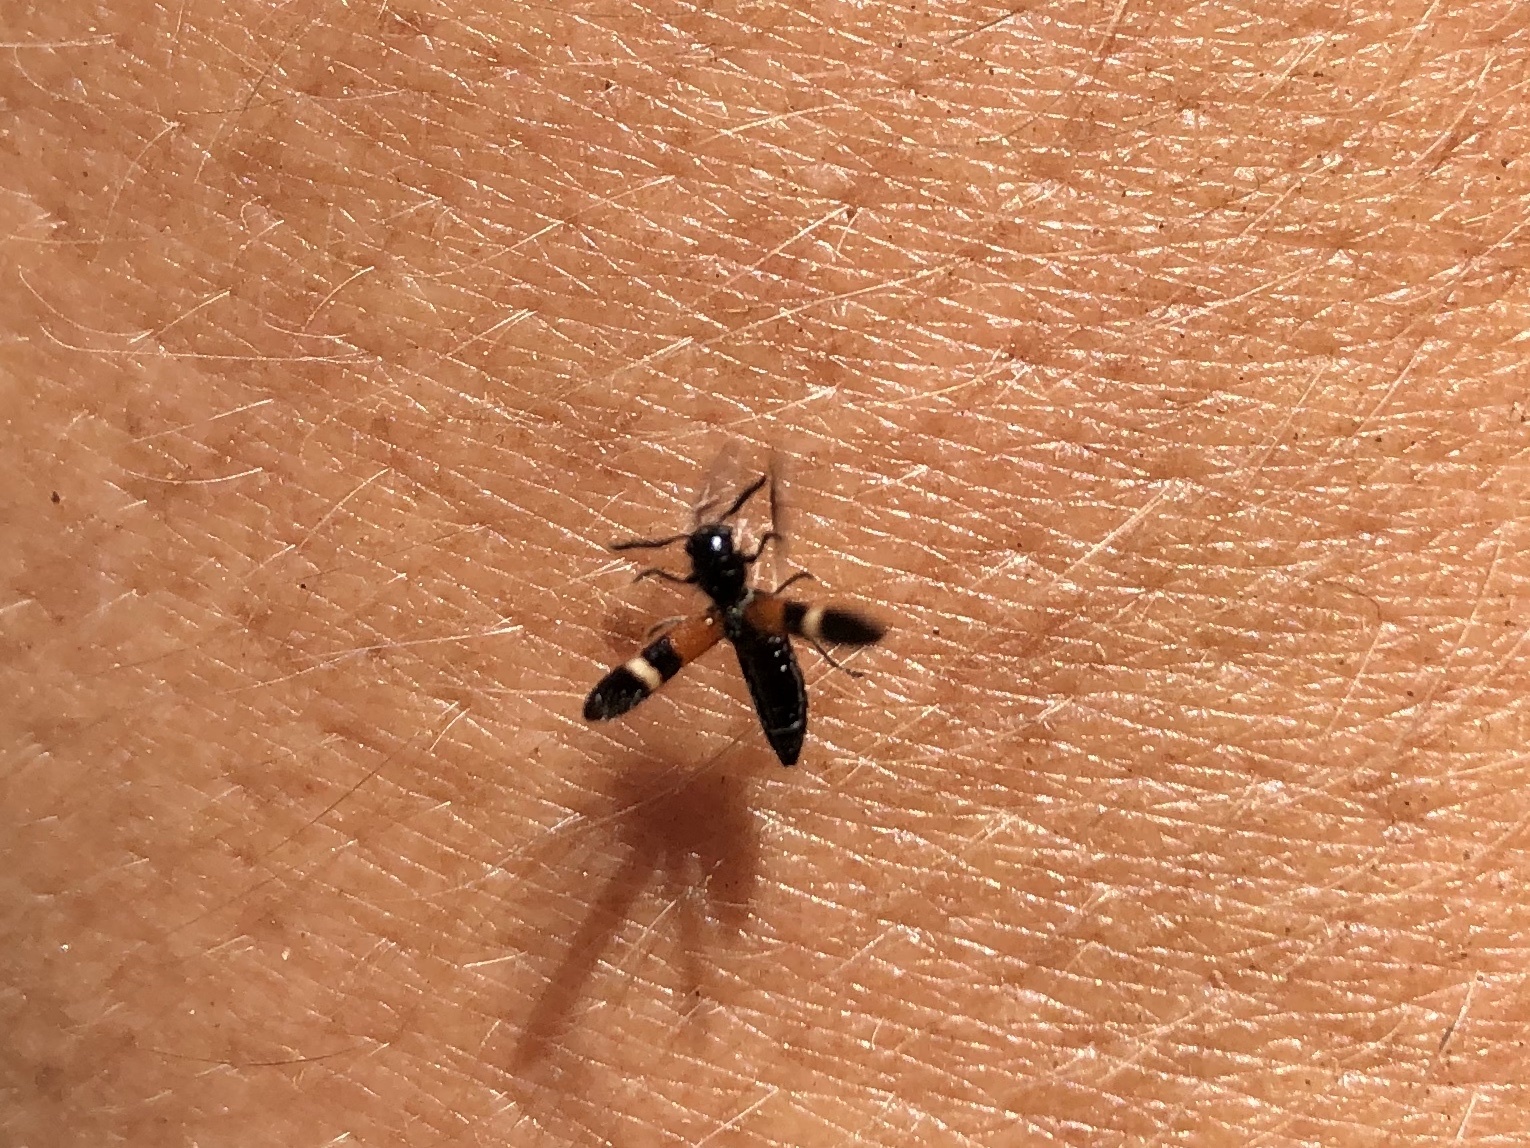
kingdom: Animalia
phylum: Arthropoda
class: Insecta
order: Coleoptera
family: Cleridae
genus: Tilloidea
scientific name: Tilloidea unifasciata
